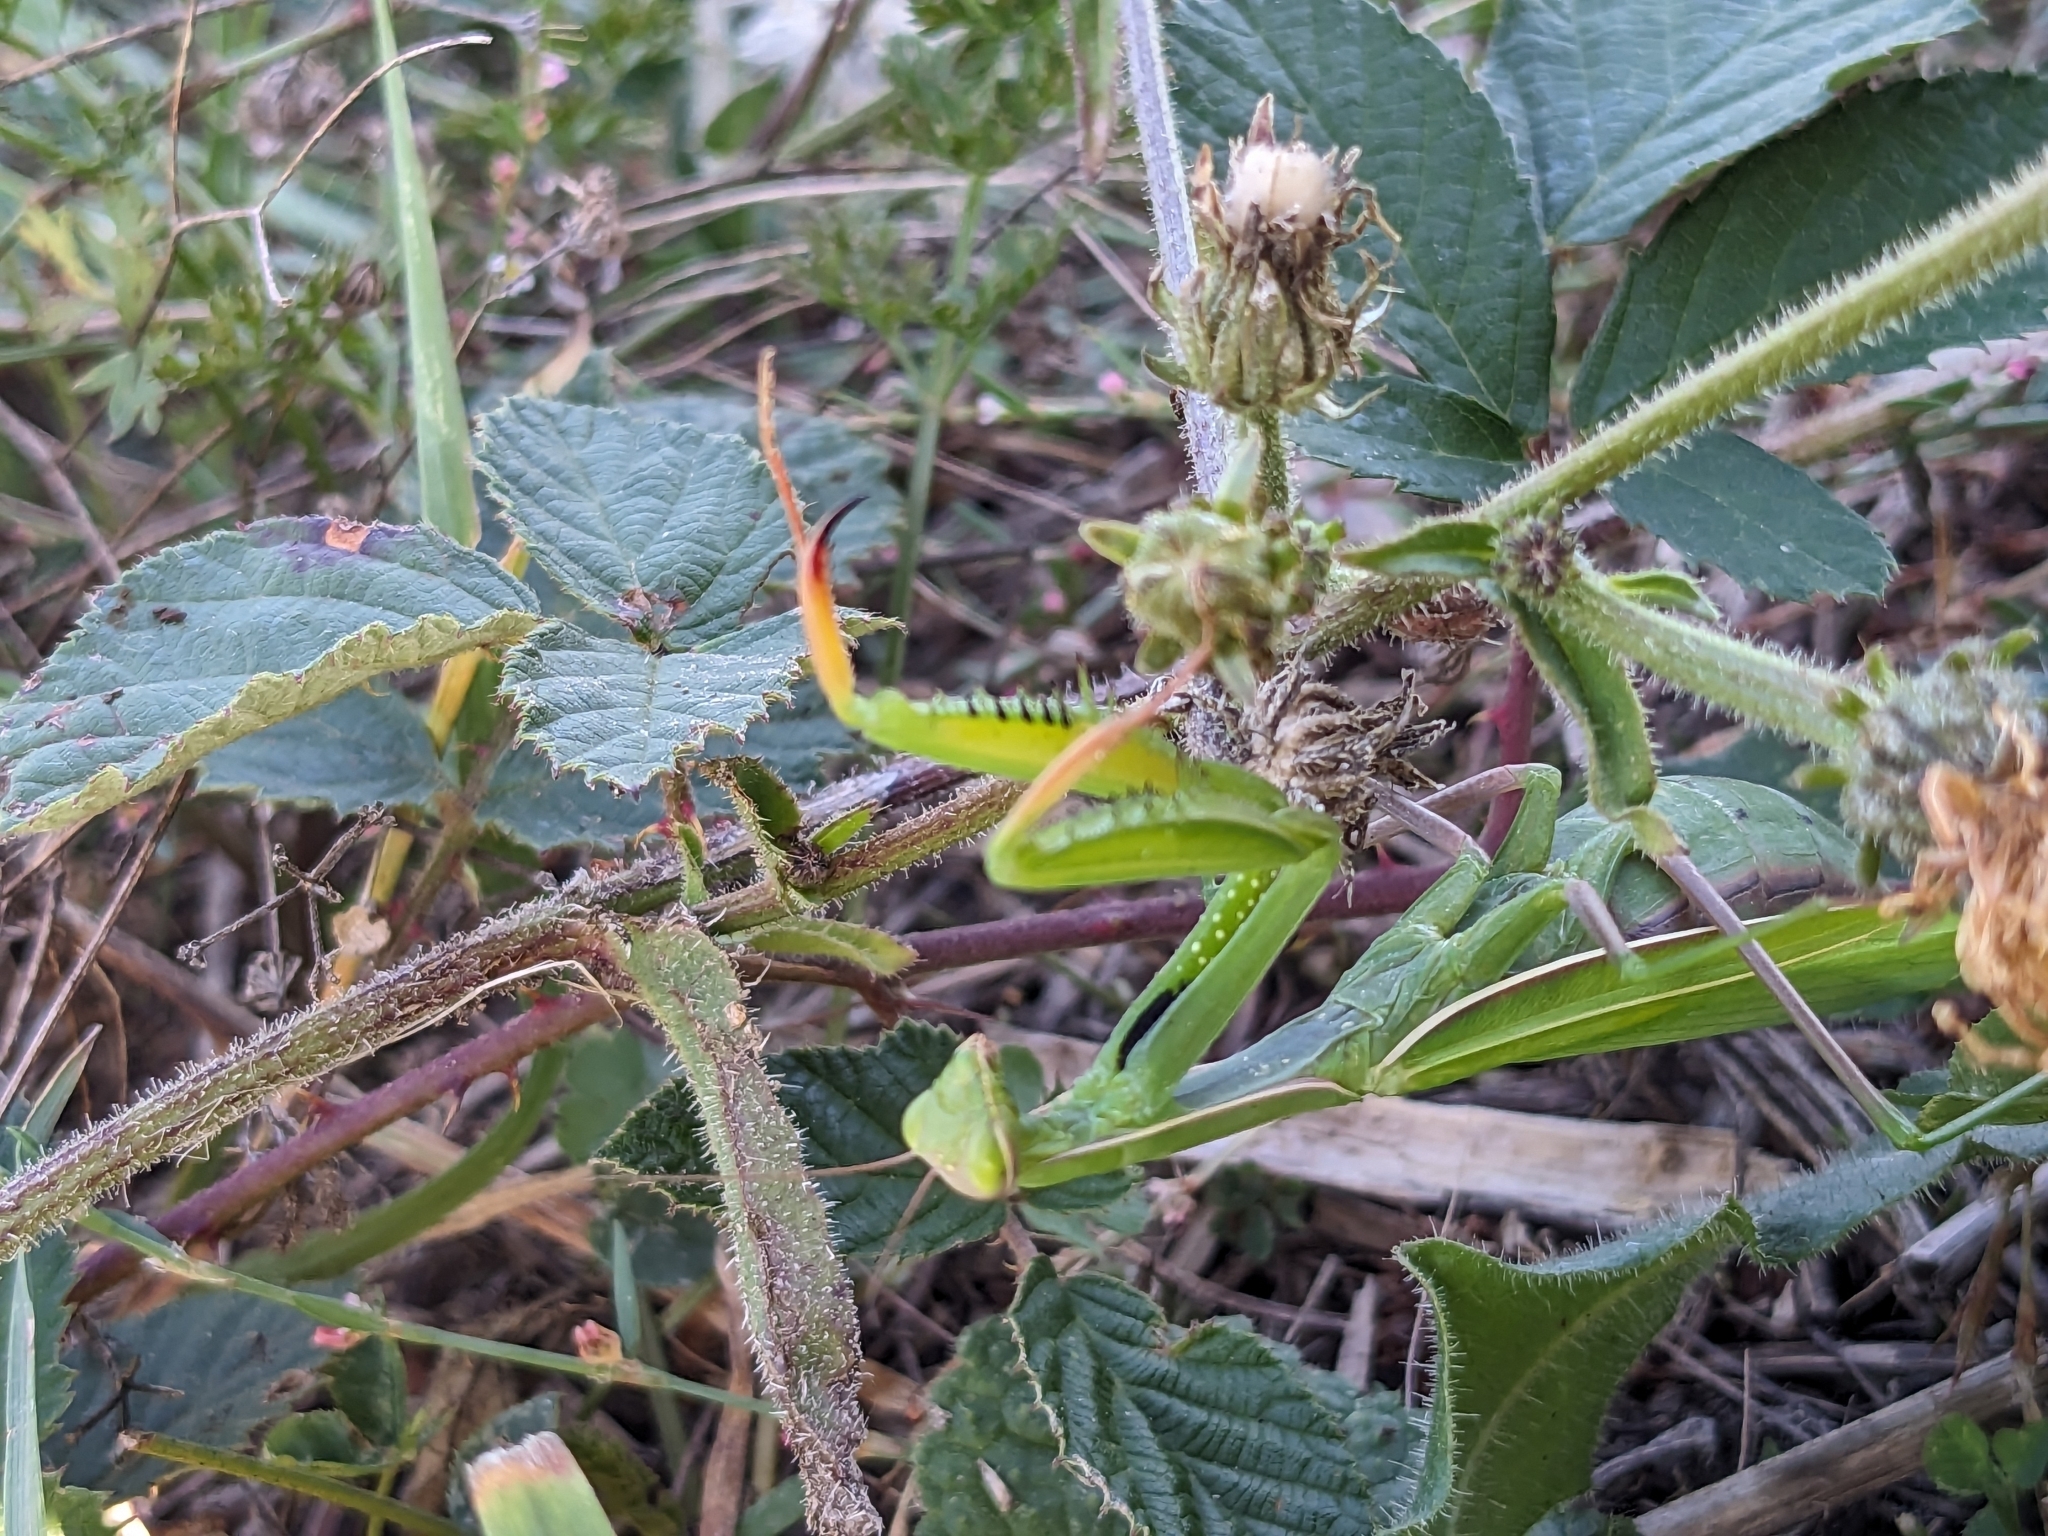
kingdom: Animalia
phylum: Arthropoda
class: Insecta
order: Mantodea
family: Mantidae
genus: Mantis
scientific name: Mantis religiosa
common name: Praying mantis
